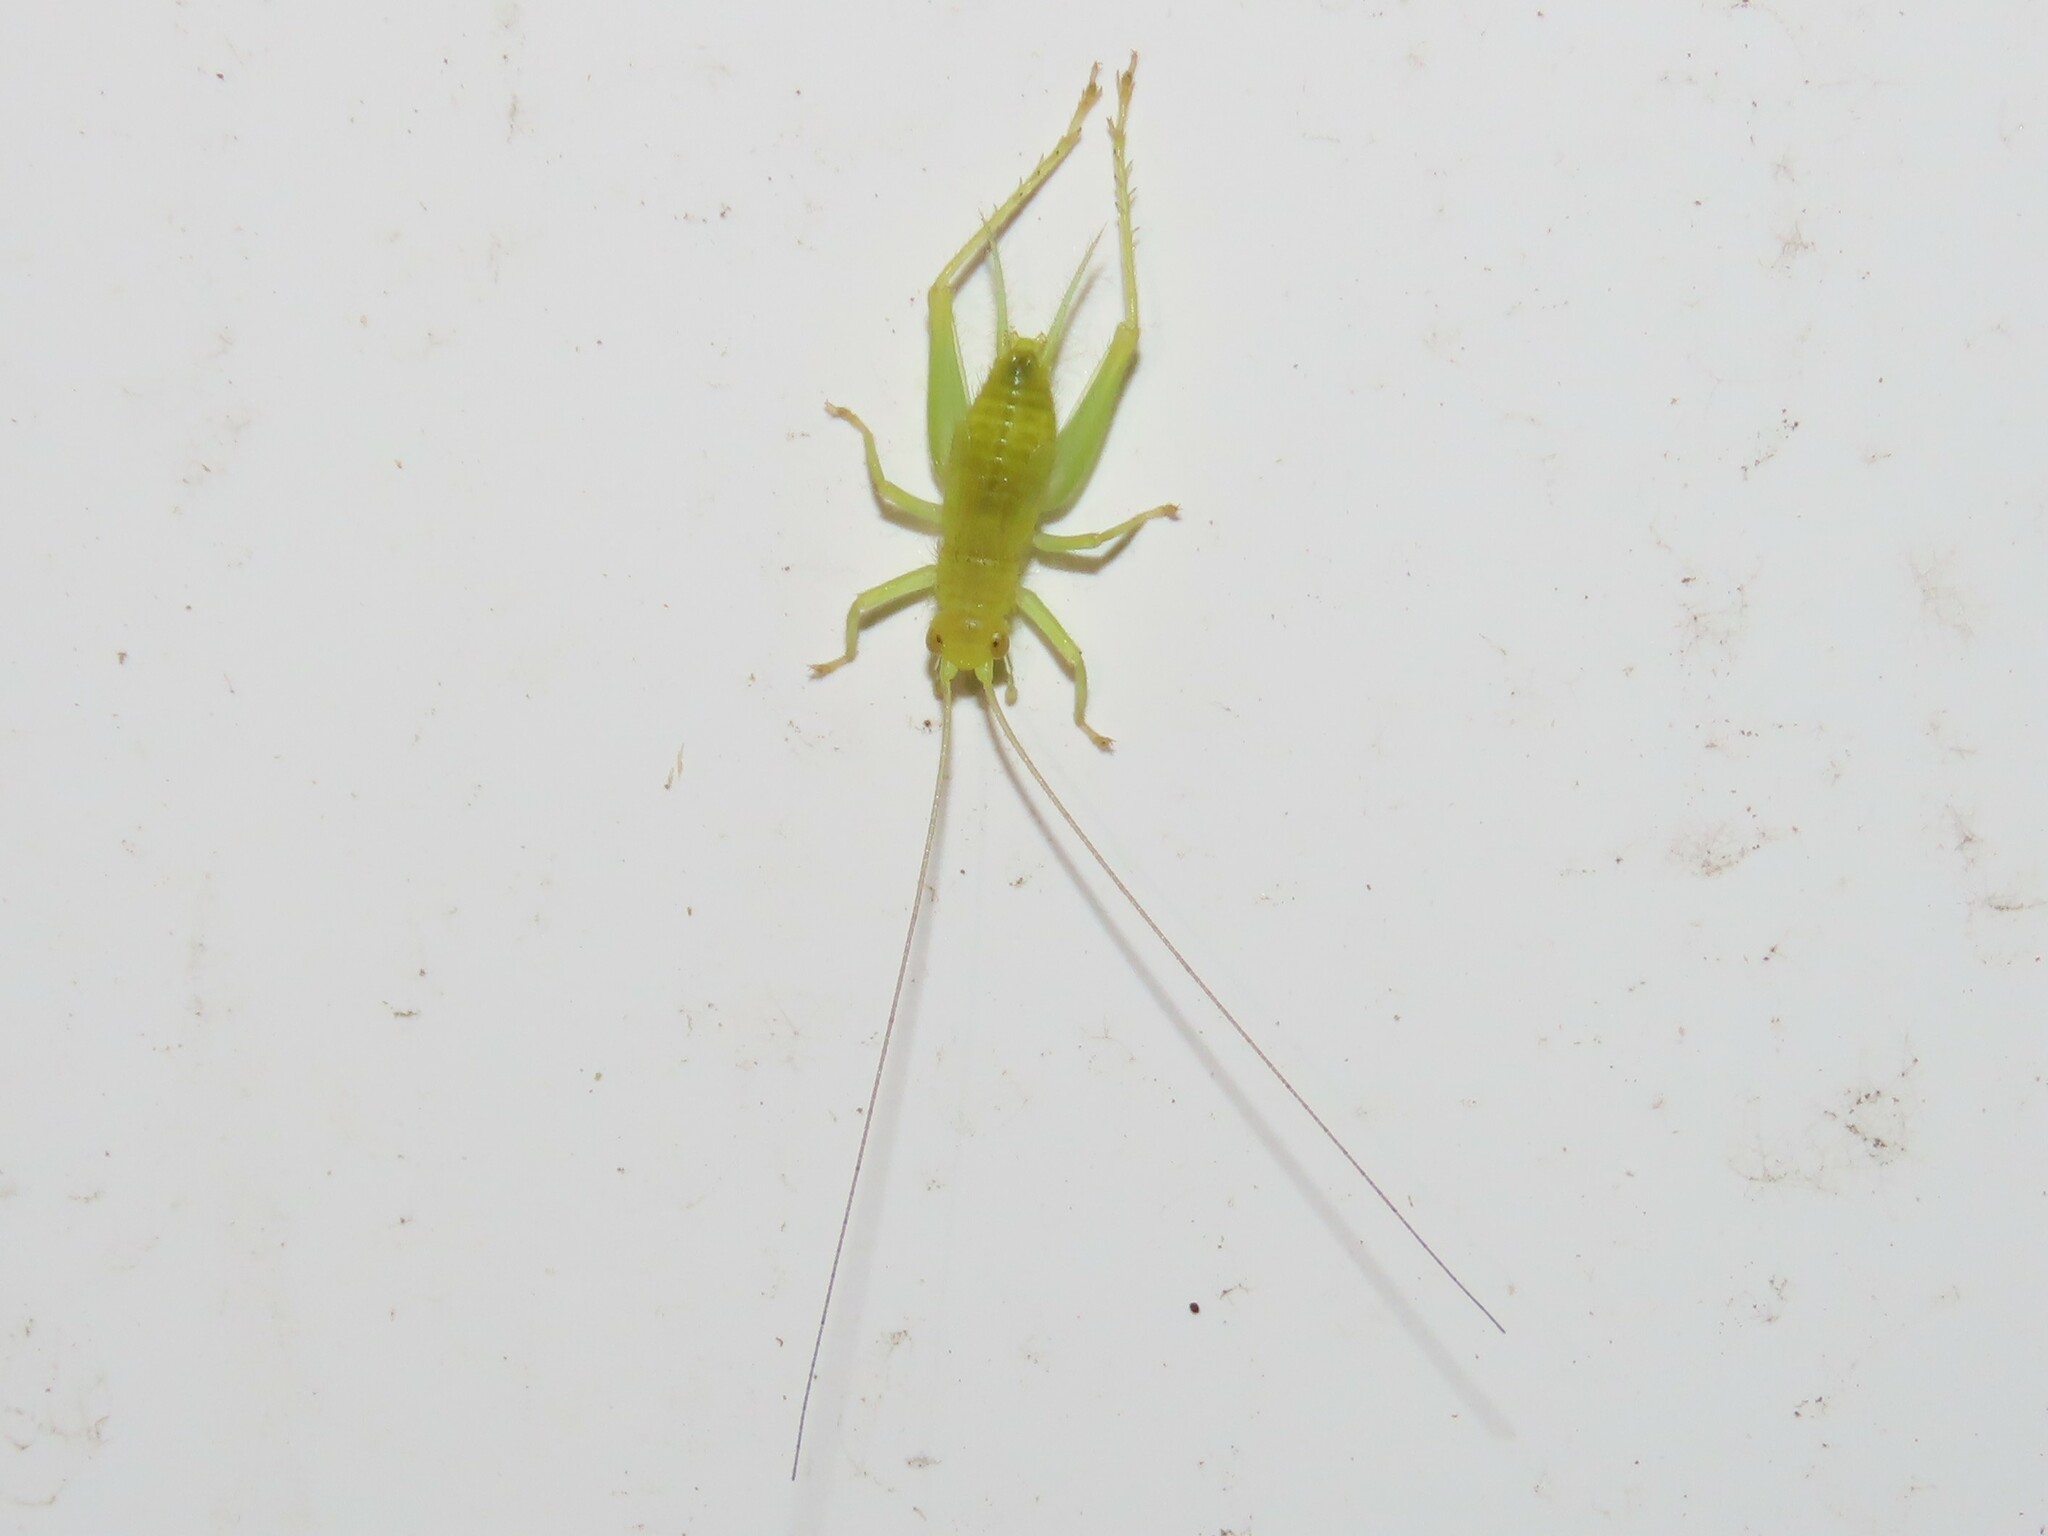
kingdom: Animalia
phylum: Arthropoda
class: Insecta
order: Orthoptera
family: Trigonidiidae
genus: Cyrtoxipha
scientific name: Cyrtoxipha columbiana
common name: Columbian trig
